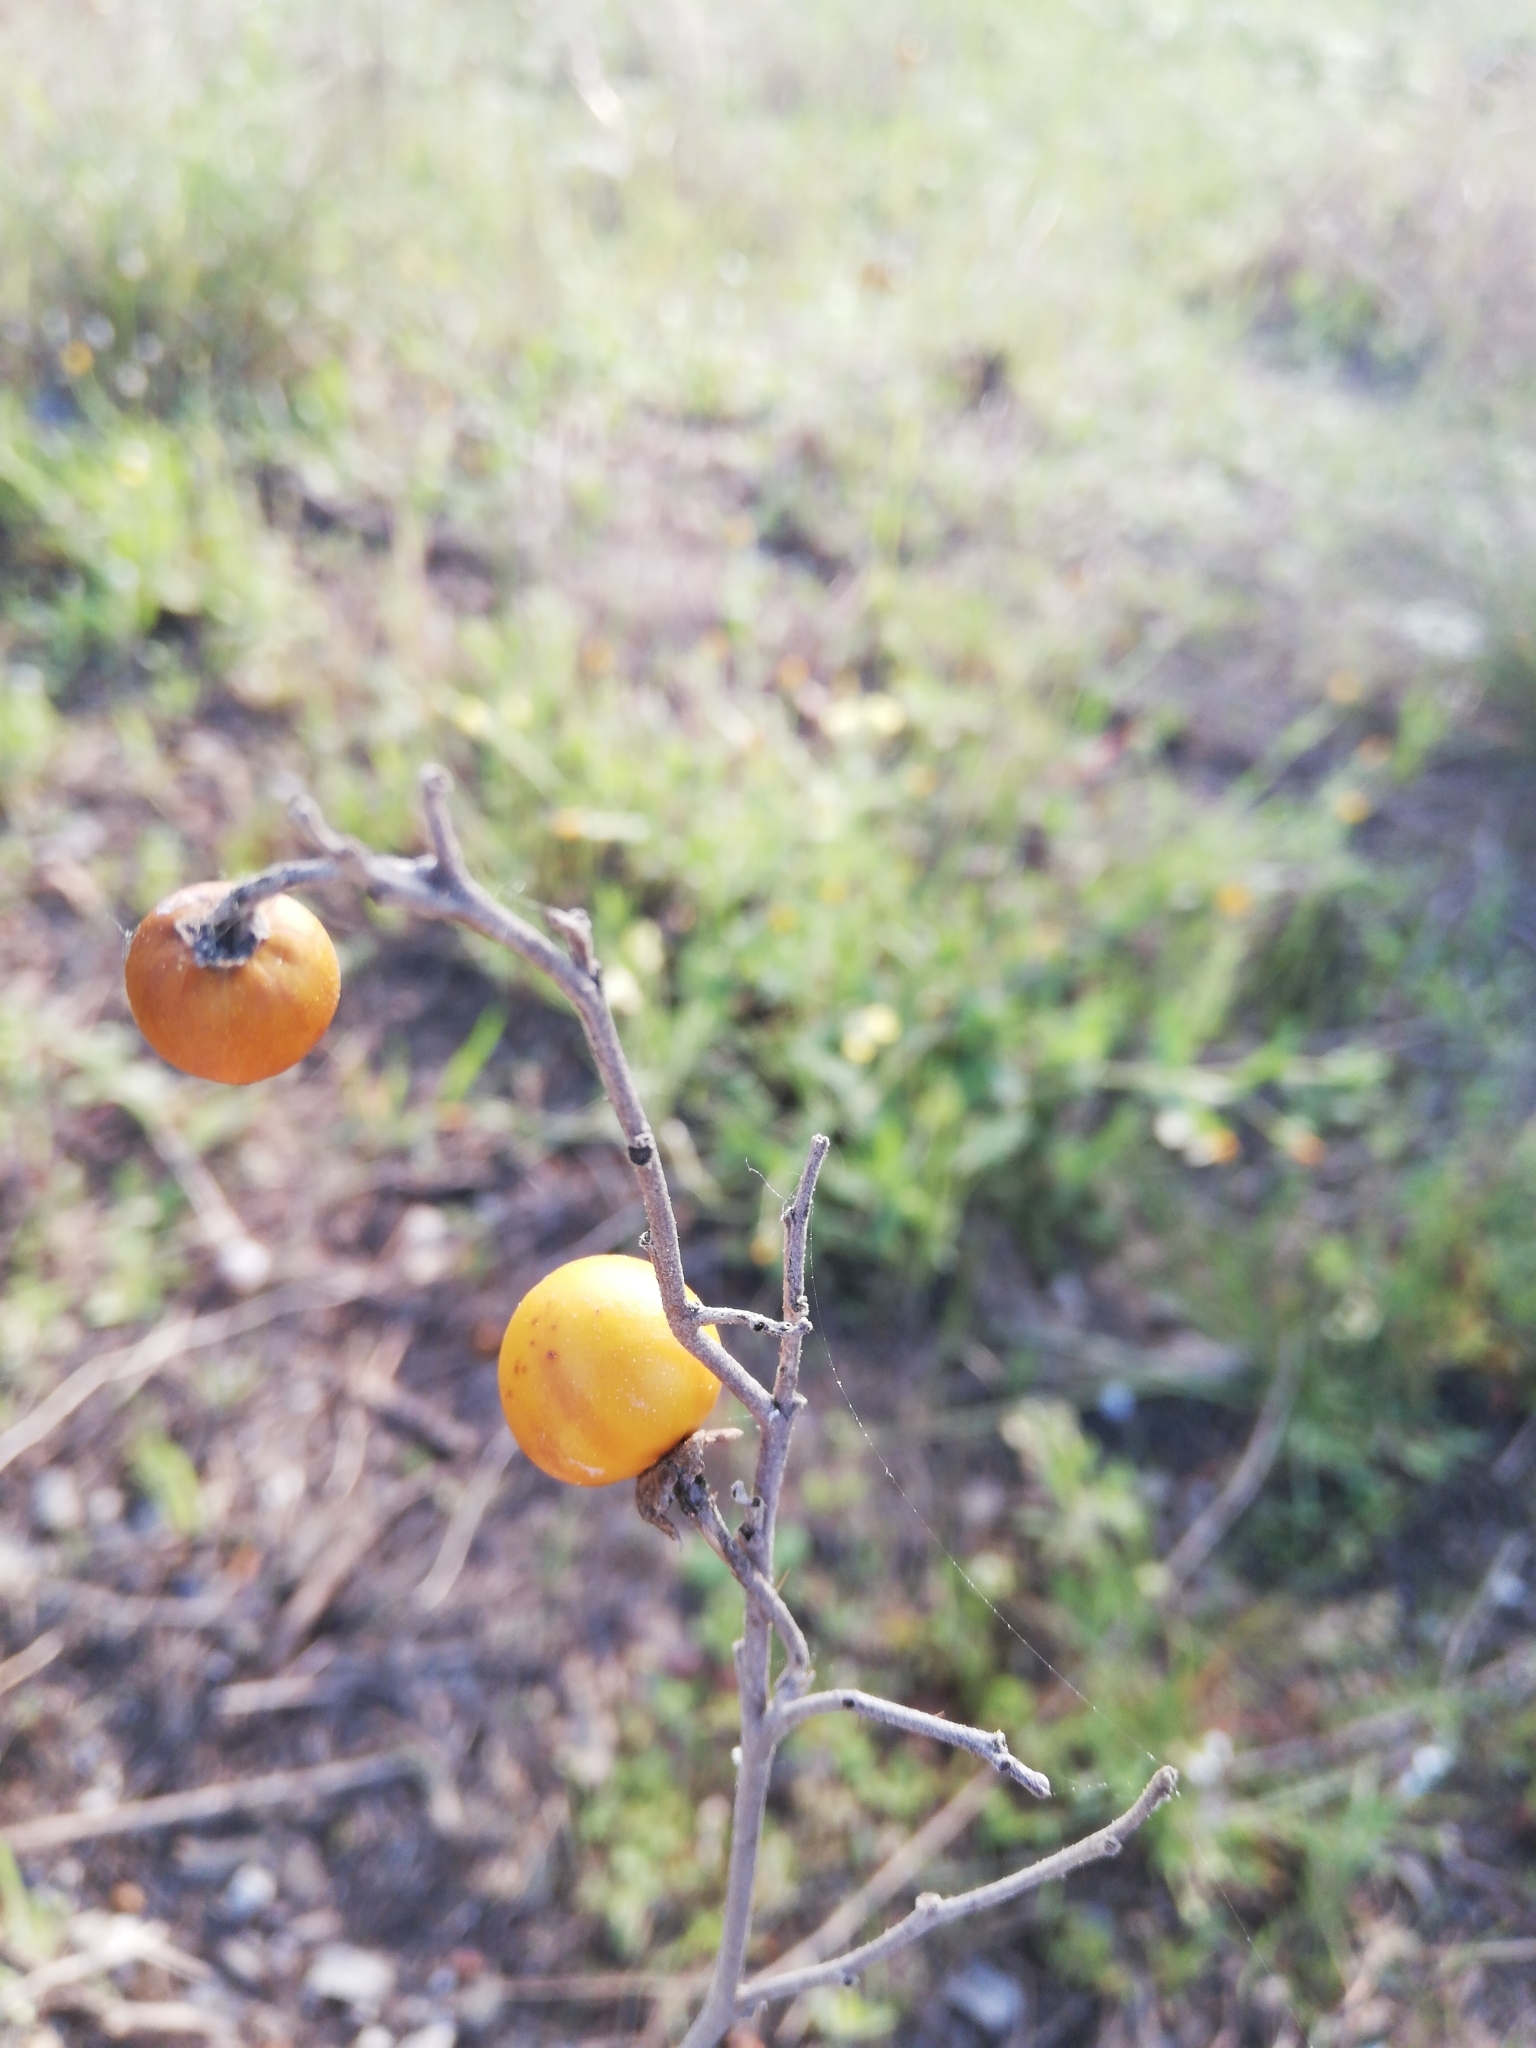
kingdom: Plantae
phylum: Tracheophyta
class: Magnoliopsida
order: Solanales
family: Solanaceae
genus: Solanum
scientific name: Solanum elaeagnifolium
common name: Silverleaf nightshade
